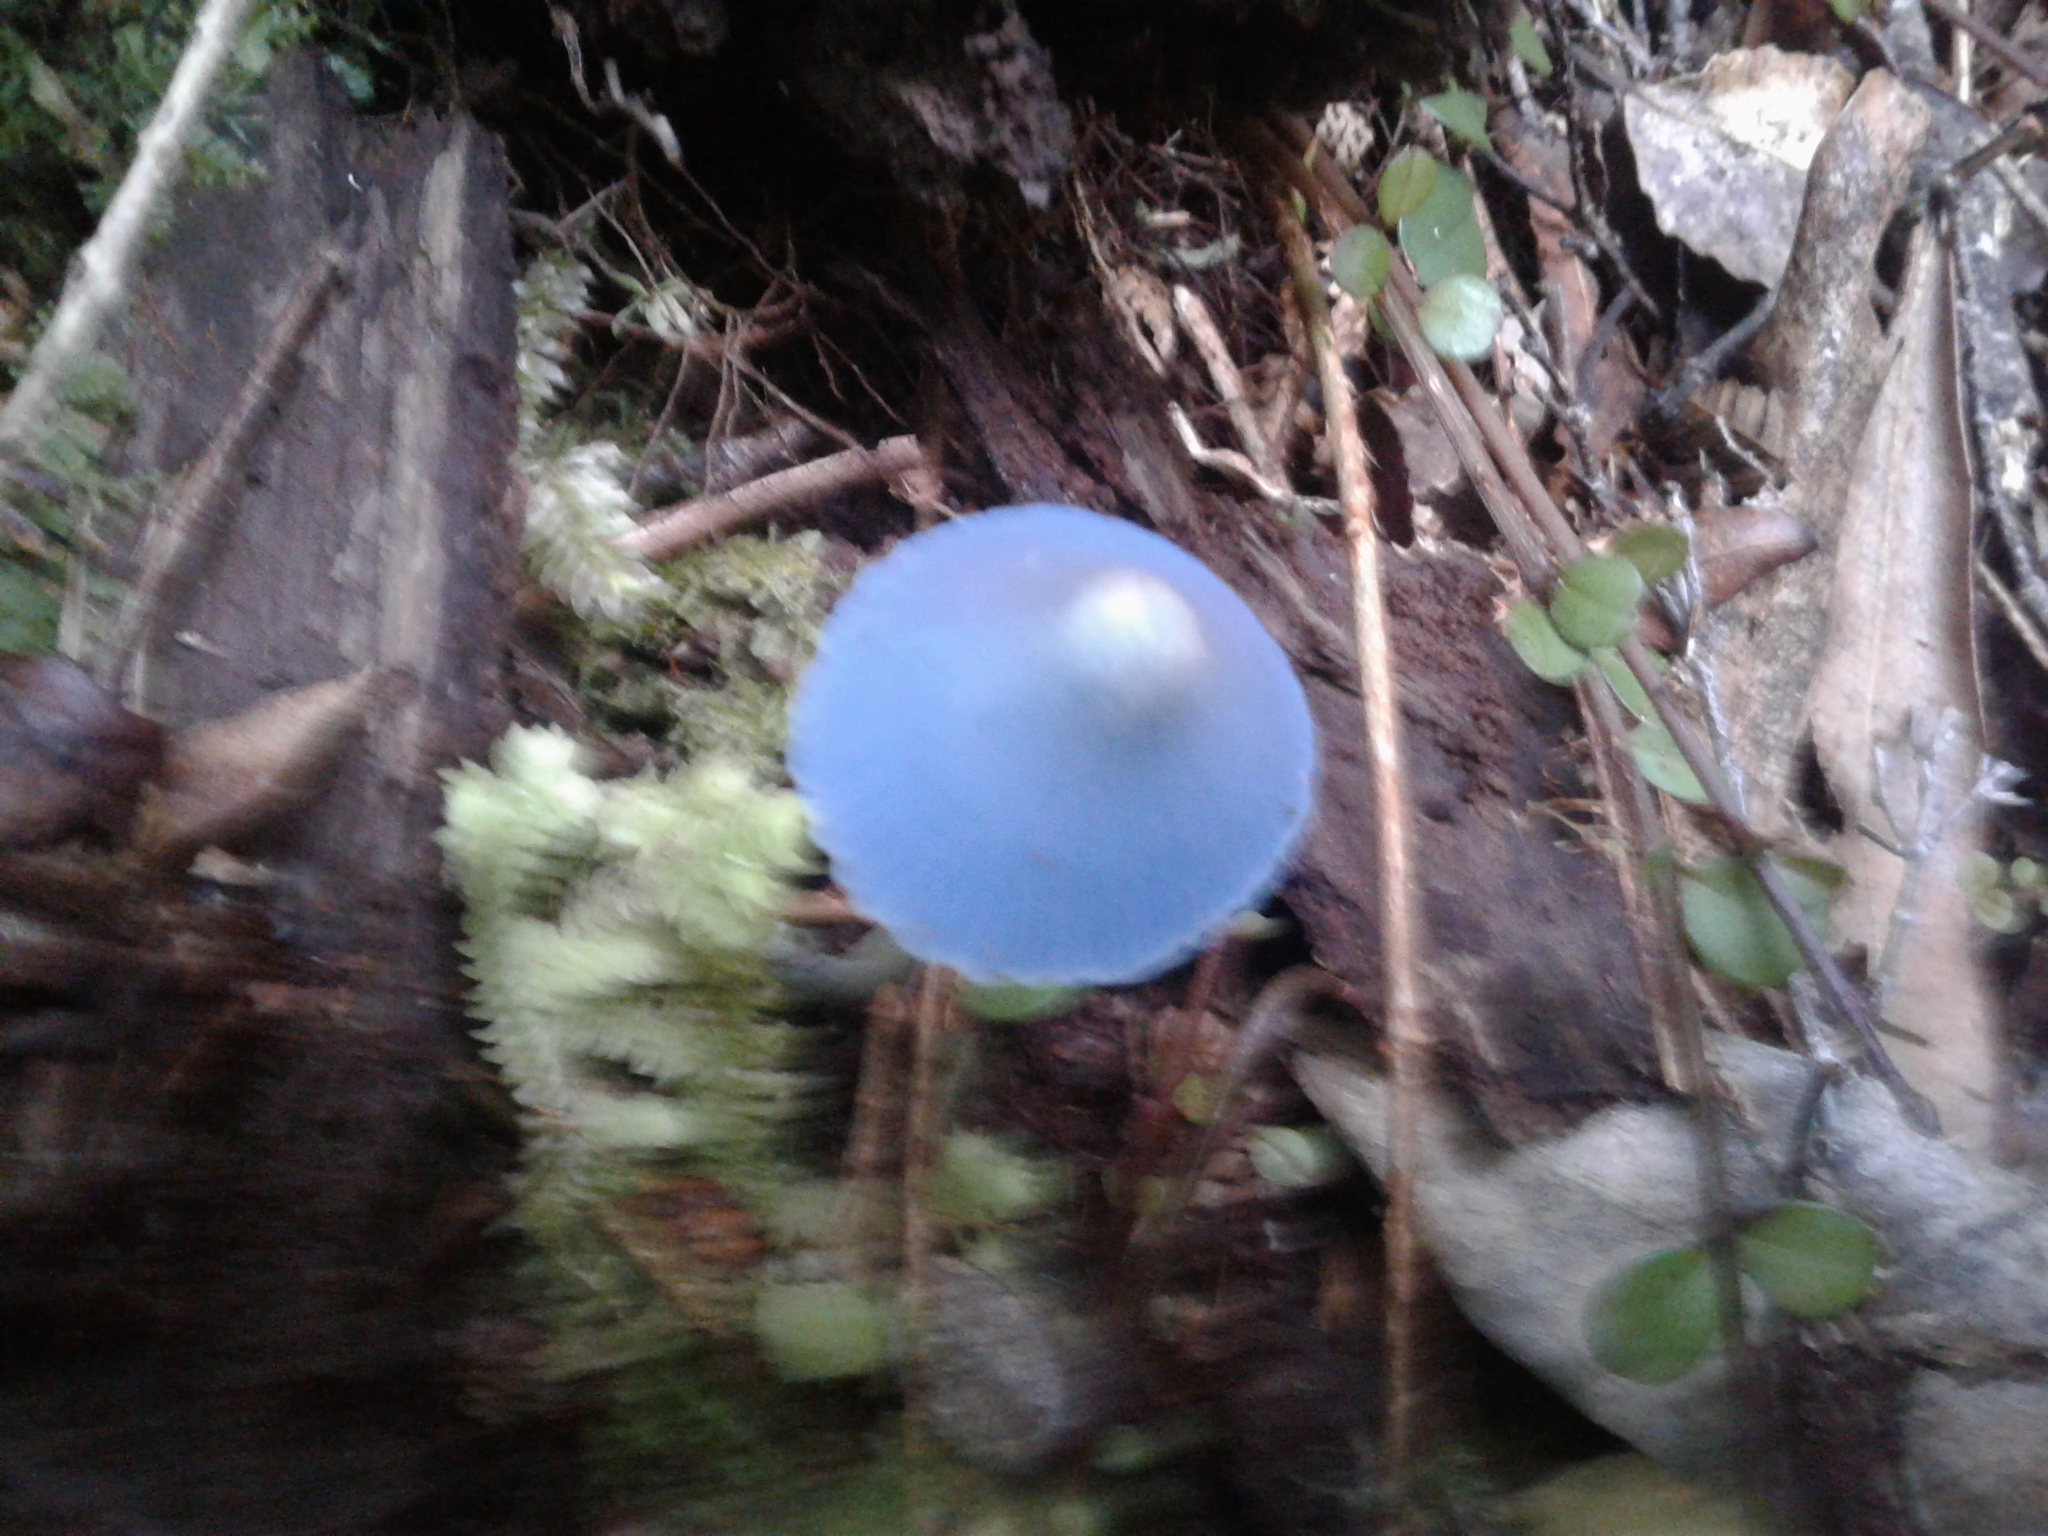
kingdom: Fungi
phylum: Basidiomycota
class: Agaricomycetes
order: Agaricales
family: Entolomataceae
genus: Entoloma
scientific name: Entoloma hochstetteri
